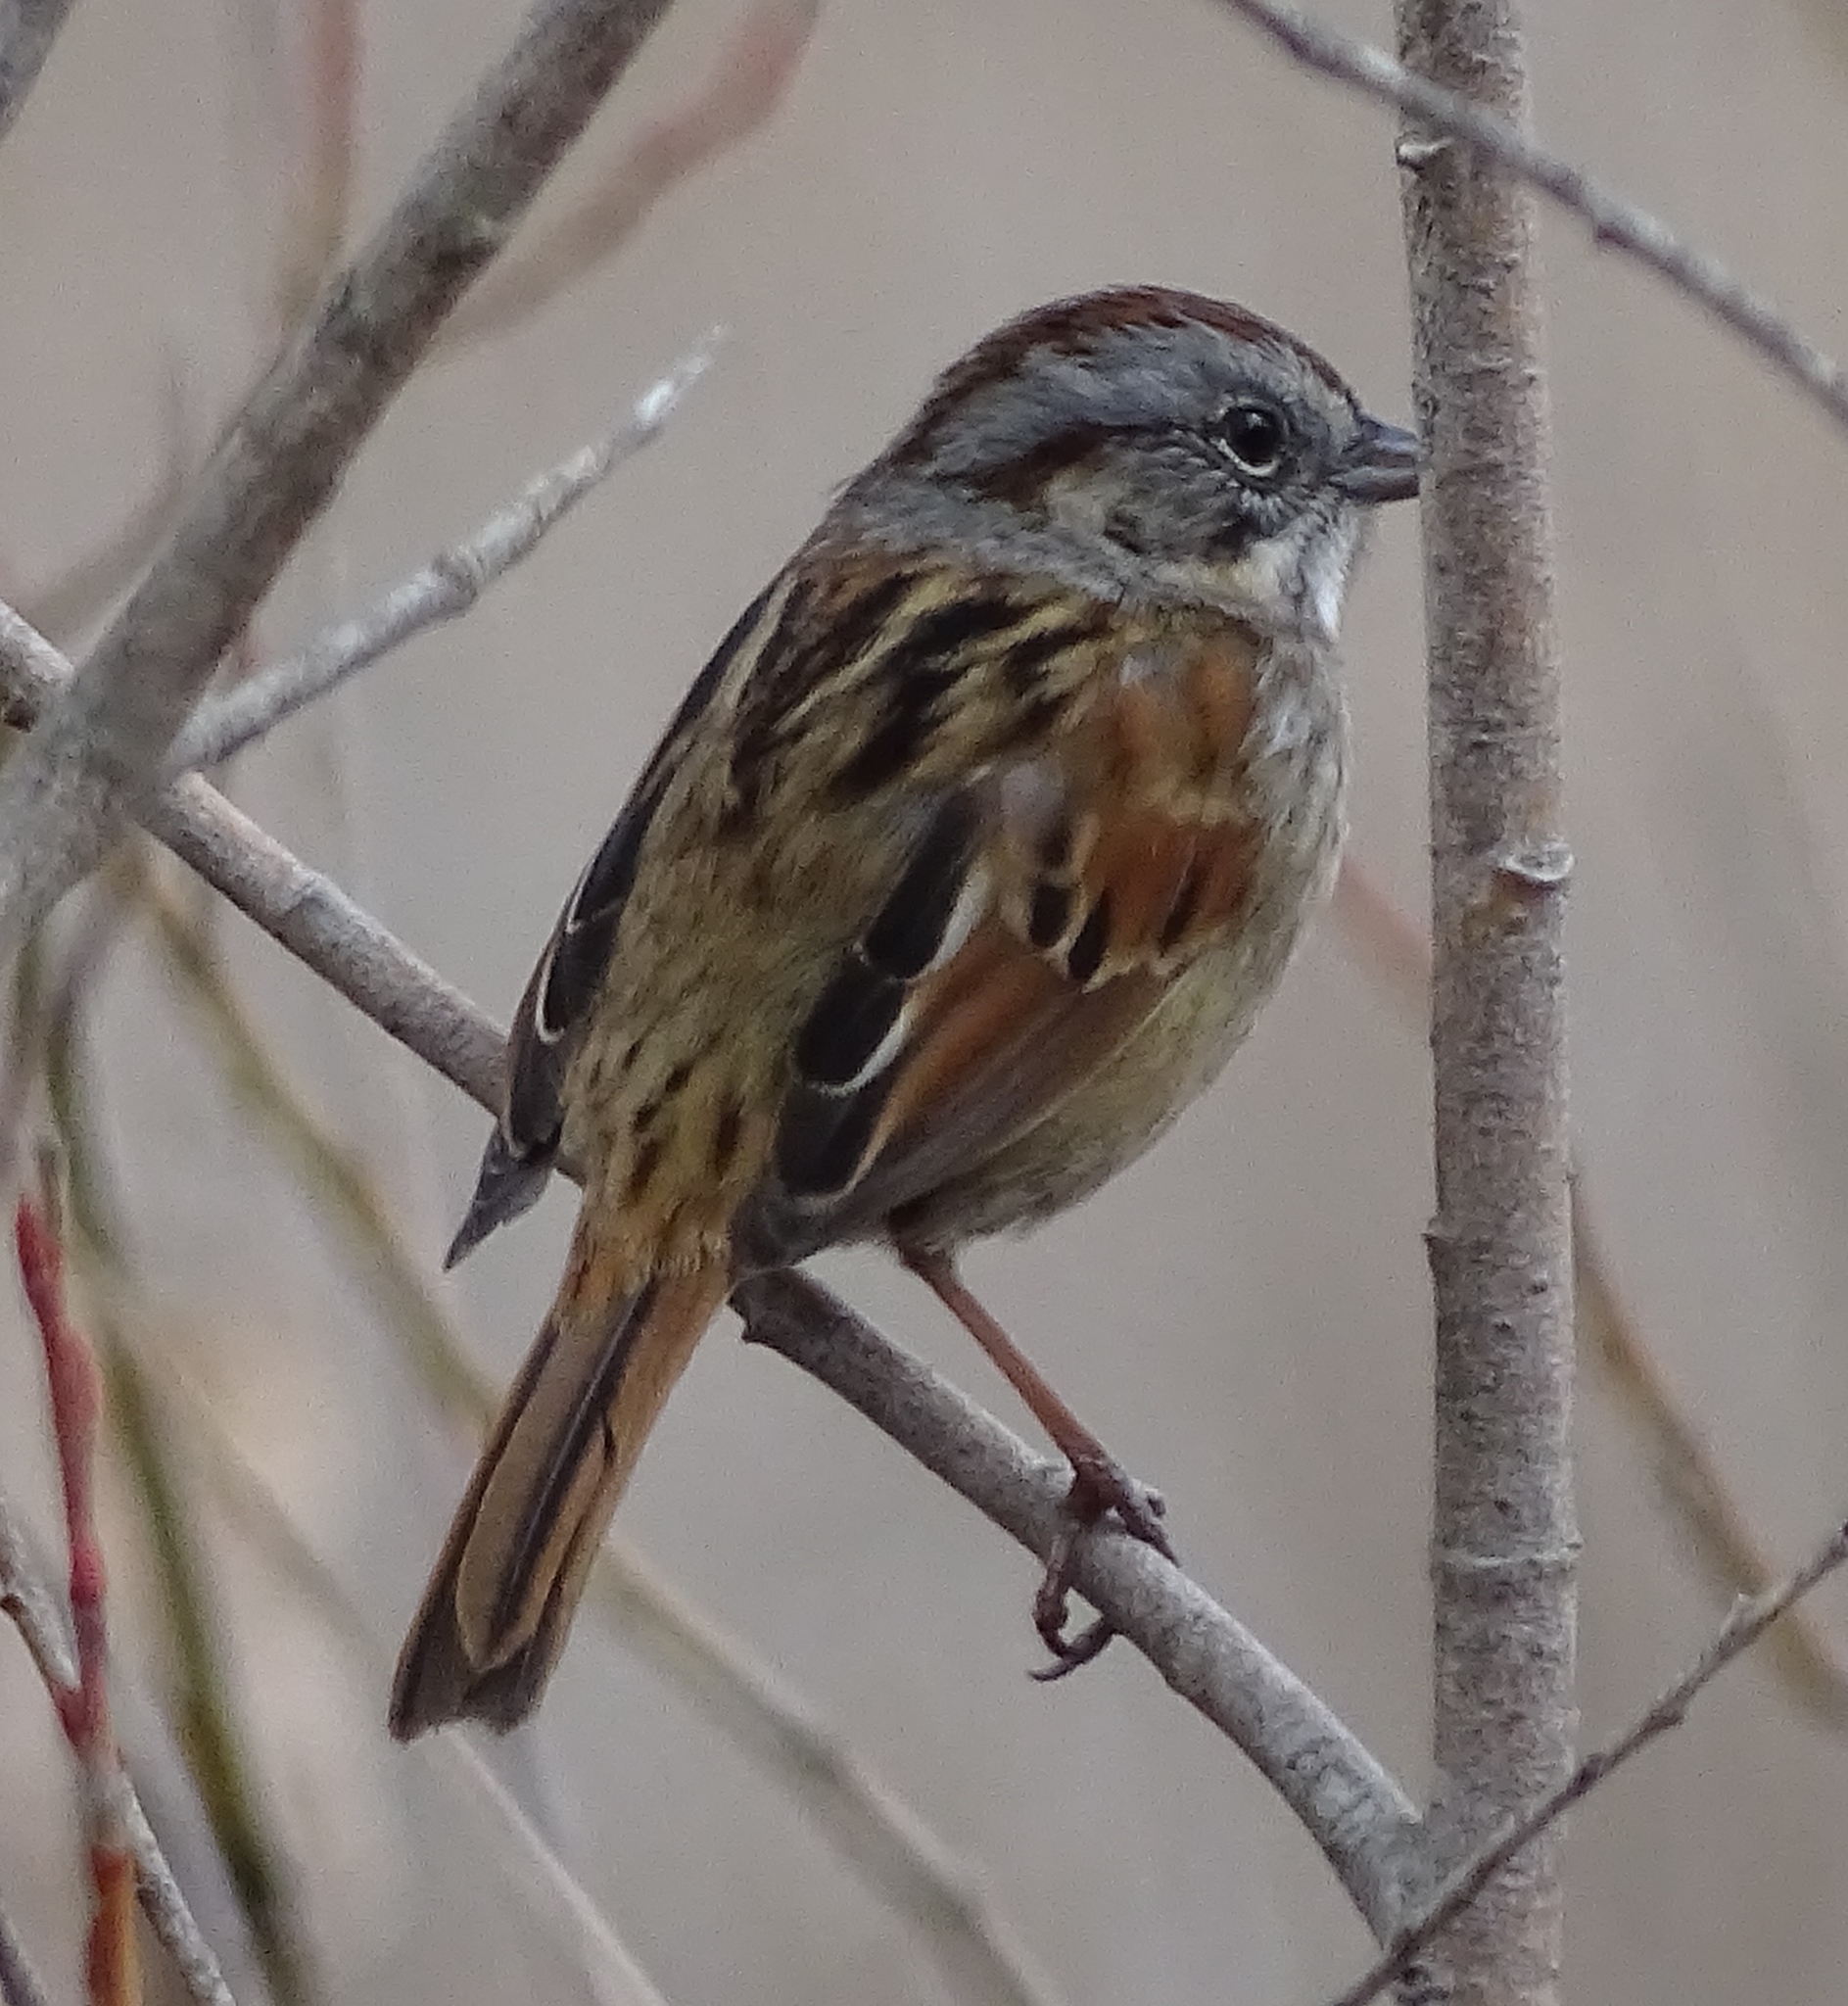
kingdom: Animalia
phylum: Chordata
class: Aves
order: Passeriformes
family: Passerellidae
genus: Melospiza
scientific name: Melospiza georgiana
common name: Swamp sparrow
